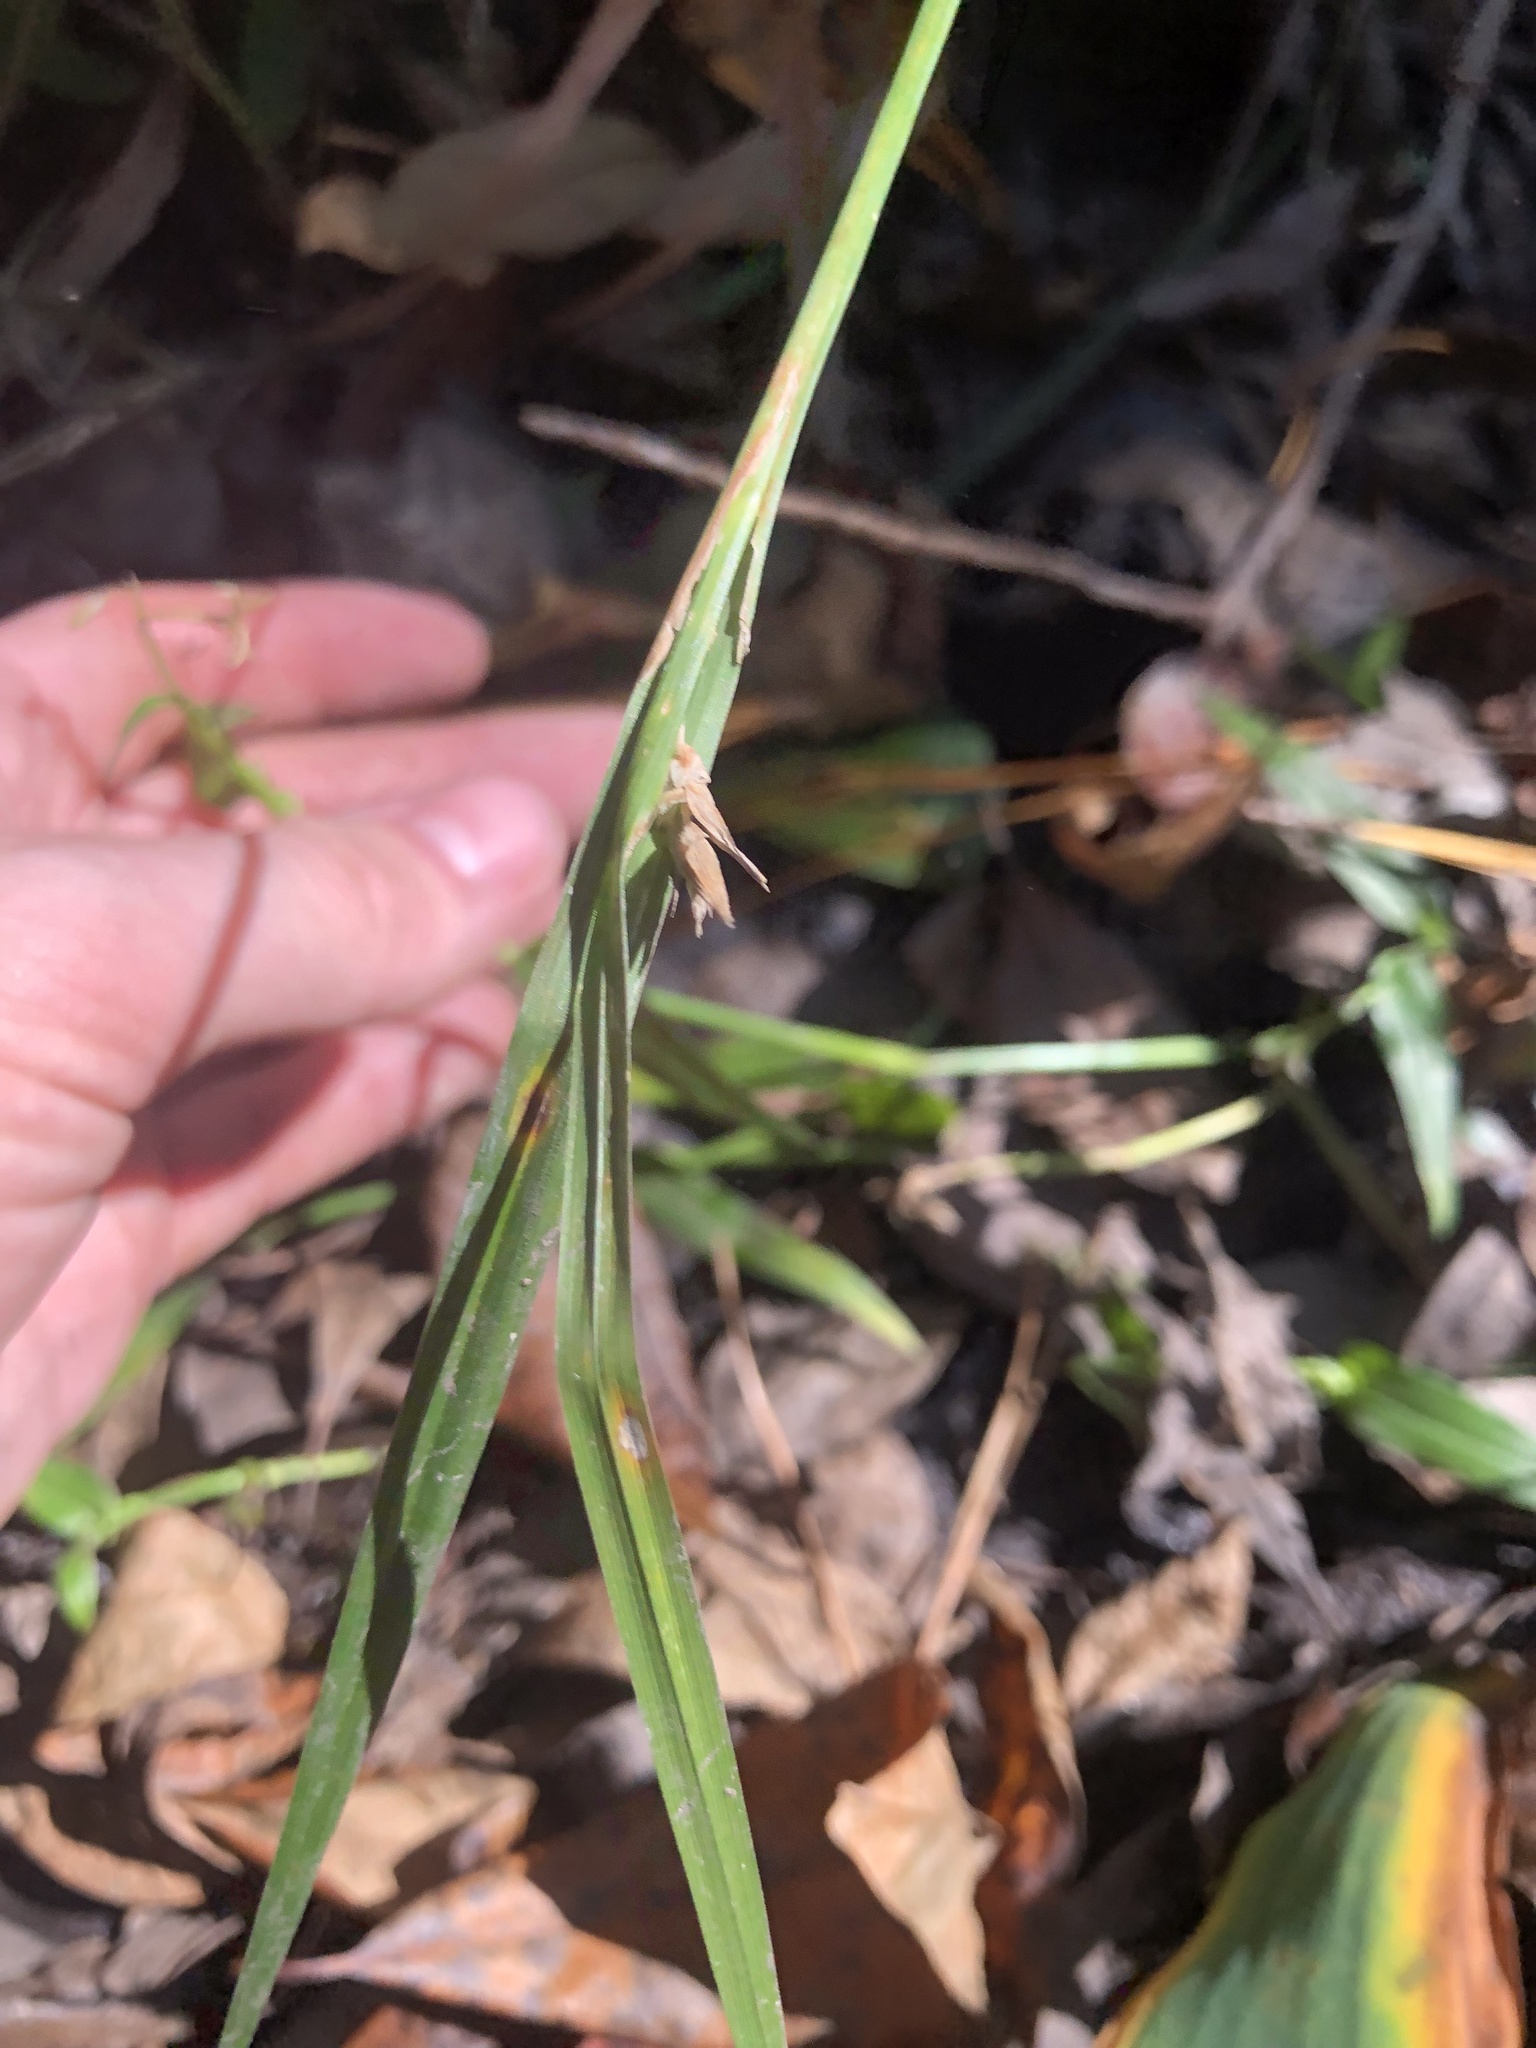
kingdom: Plantae
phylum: Tracheophyta
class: Liliopsida
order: Poales
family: Cyperaceae
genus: Carex
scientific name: Carex lonchocarpa
